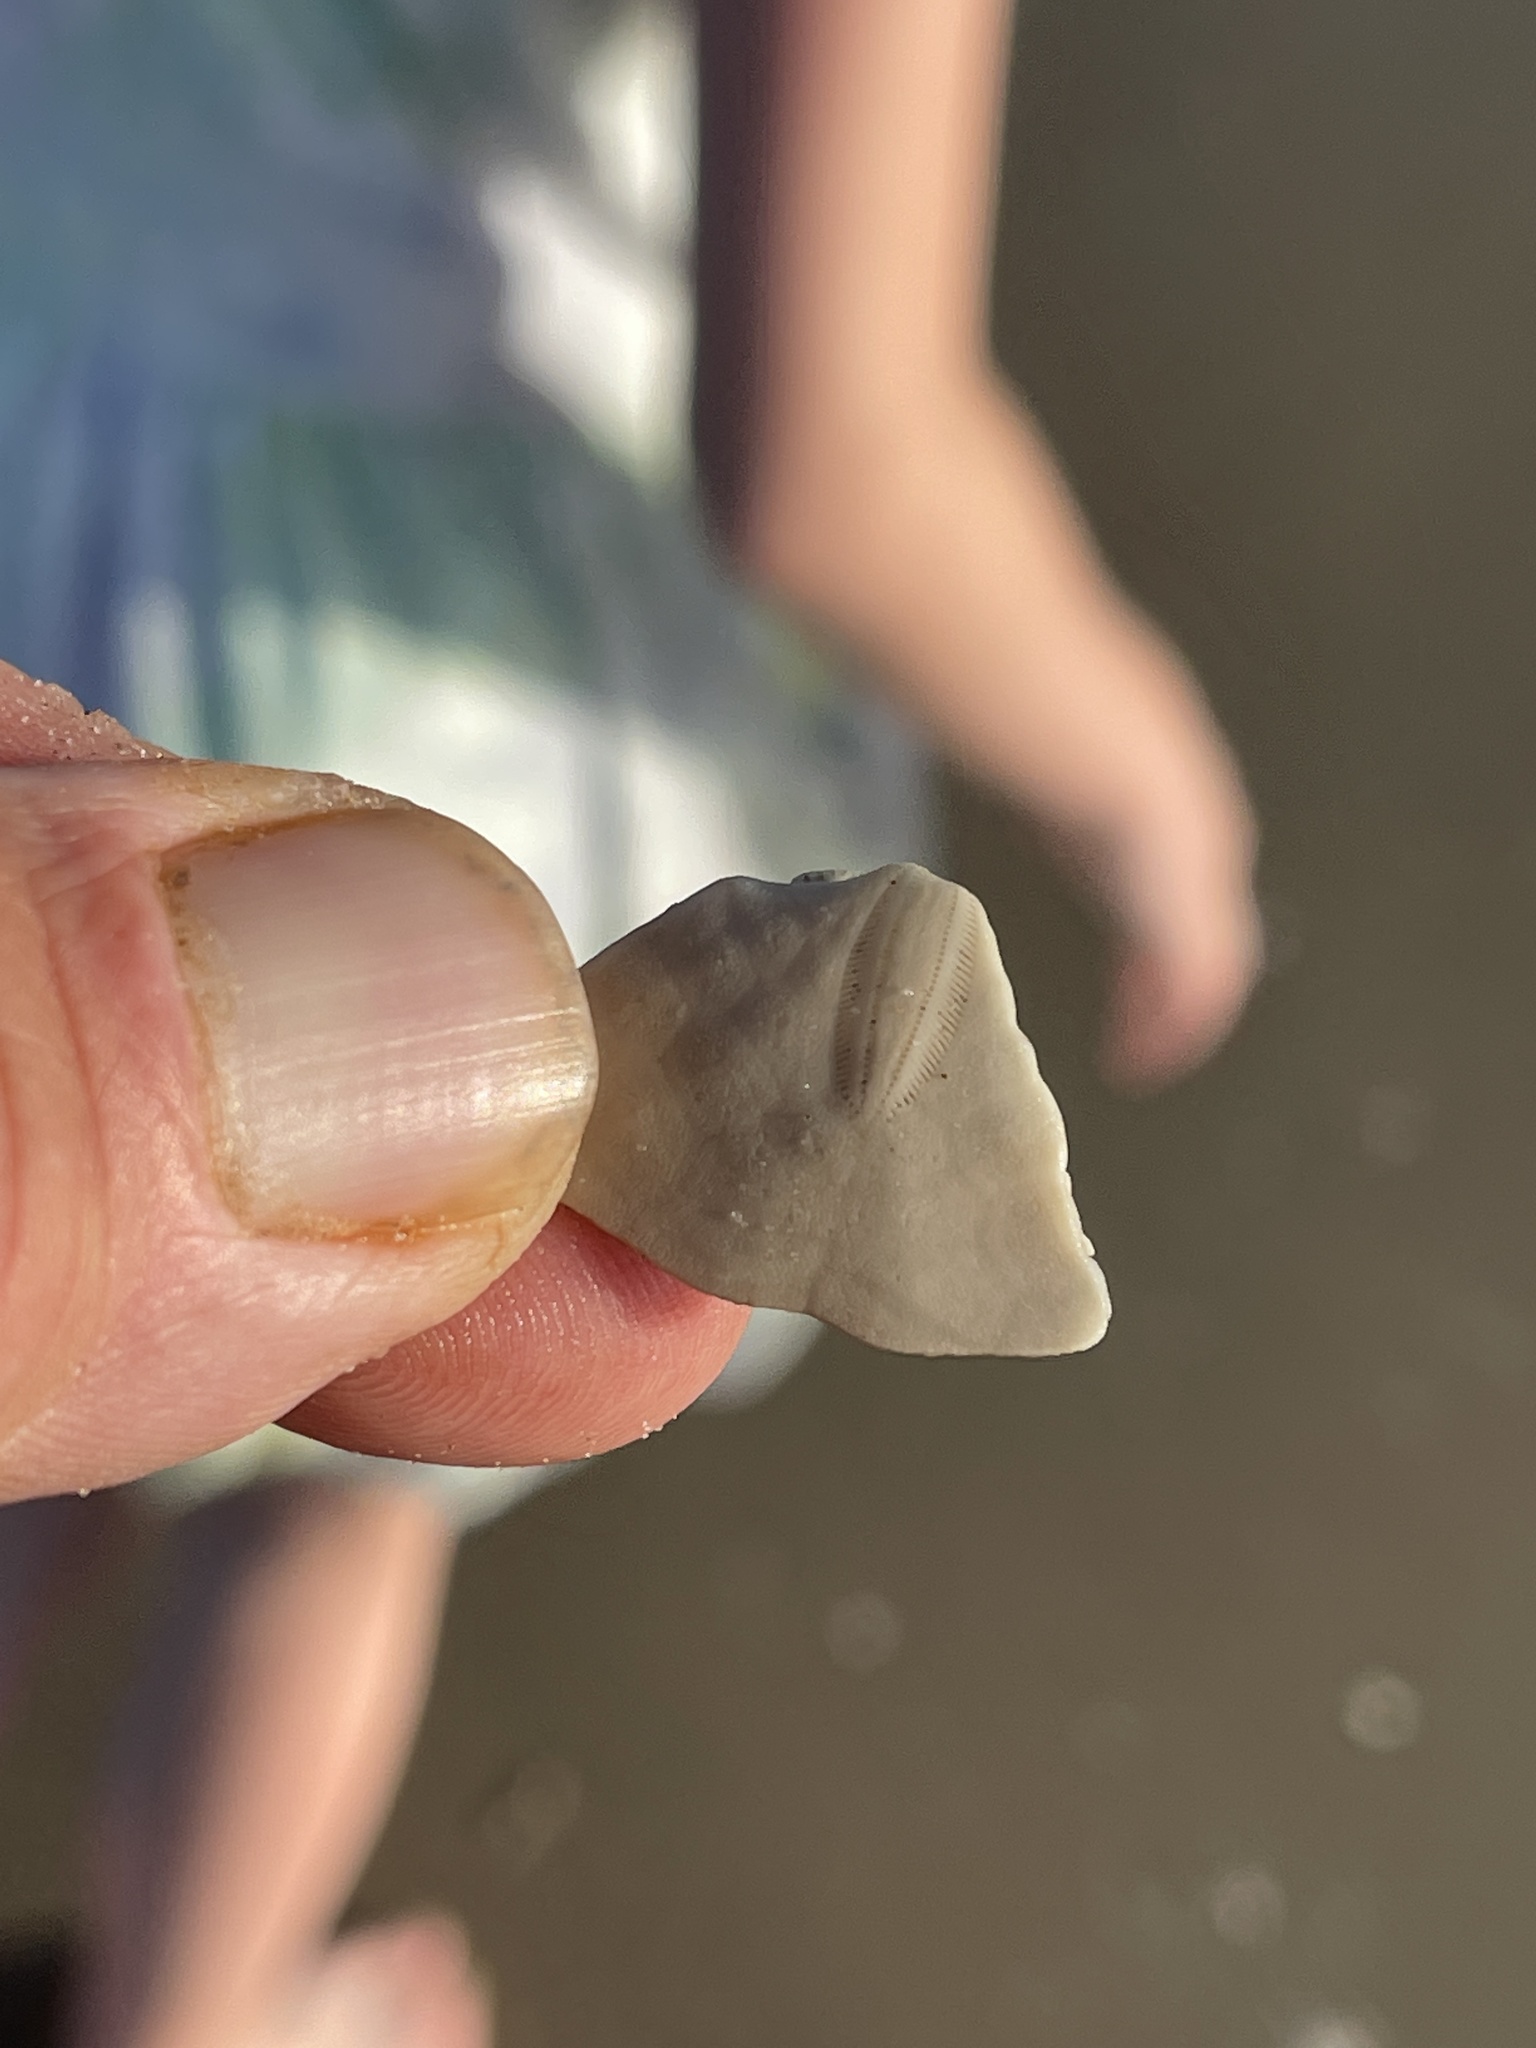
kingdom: Animalia
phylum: Echinodermata
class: Echinoidea
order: Echinolampadacea
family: Mellitidae
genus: Mellita
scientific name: Mellita quinquiesperforata
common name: Sand dollar
